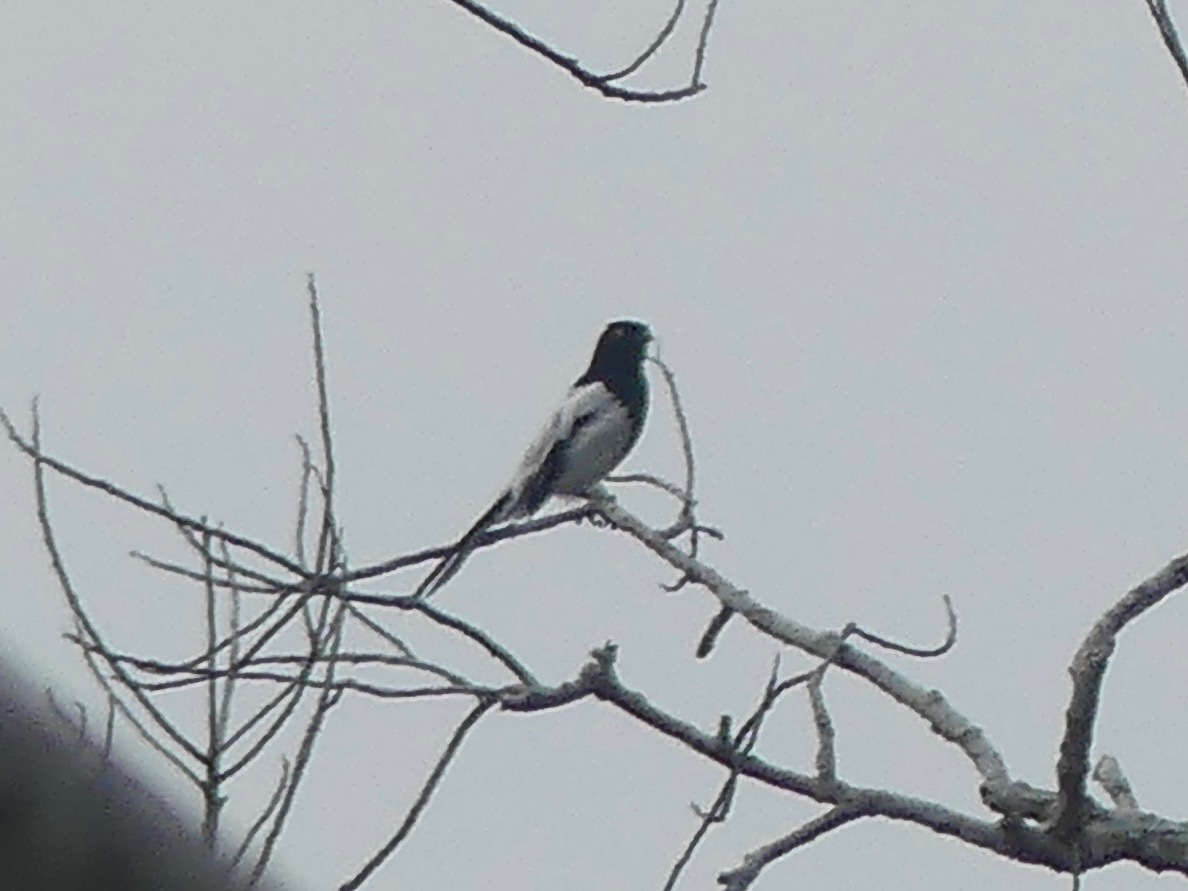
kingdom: Animalia
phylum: Chordata
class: Aves
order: Passeriformes
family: Thraupidae
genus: Cissopis
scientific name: Cissopis leverianus
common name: Magpie tanager
